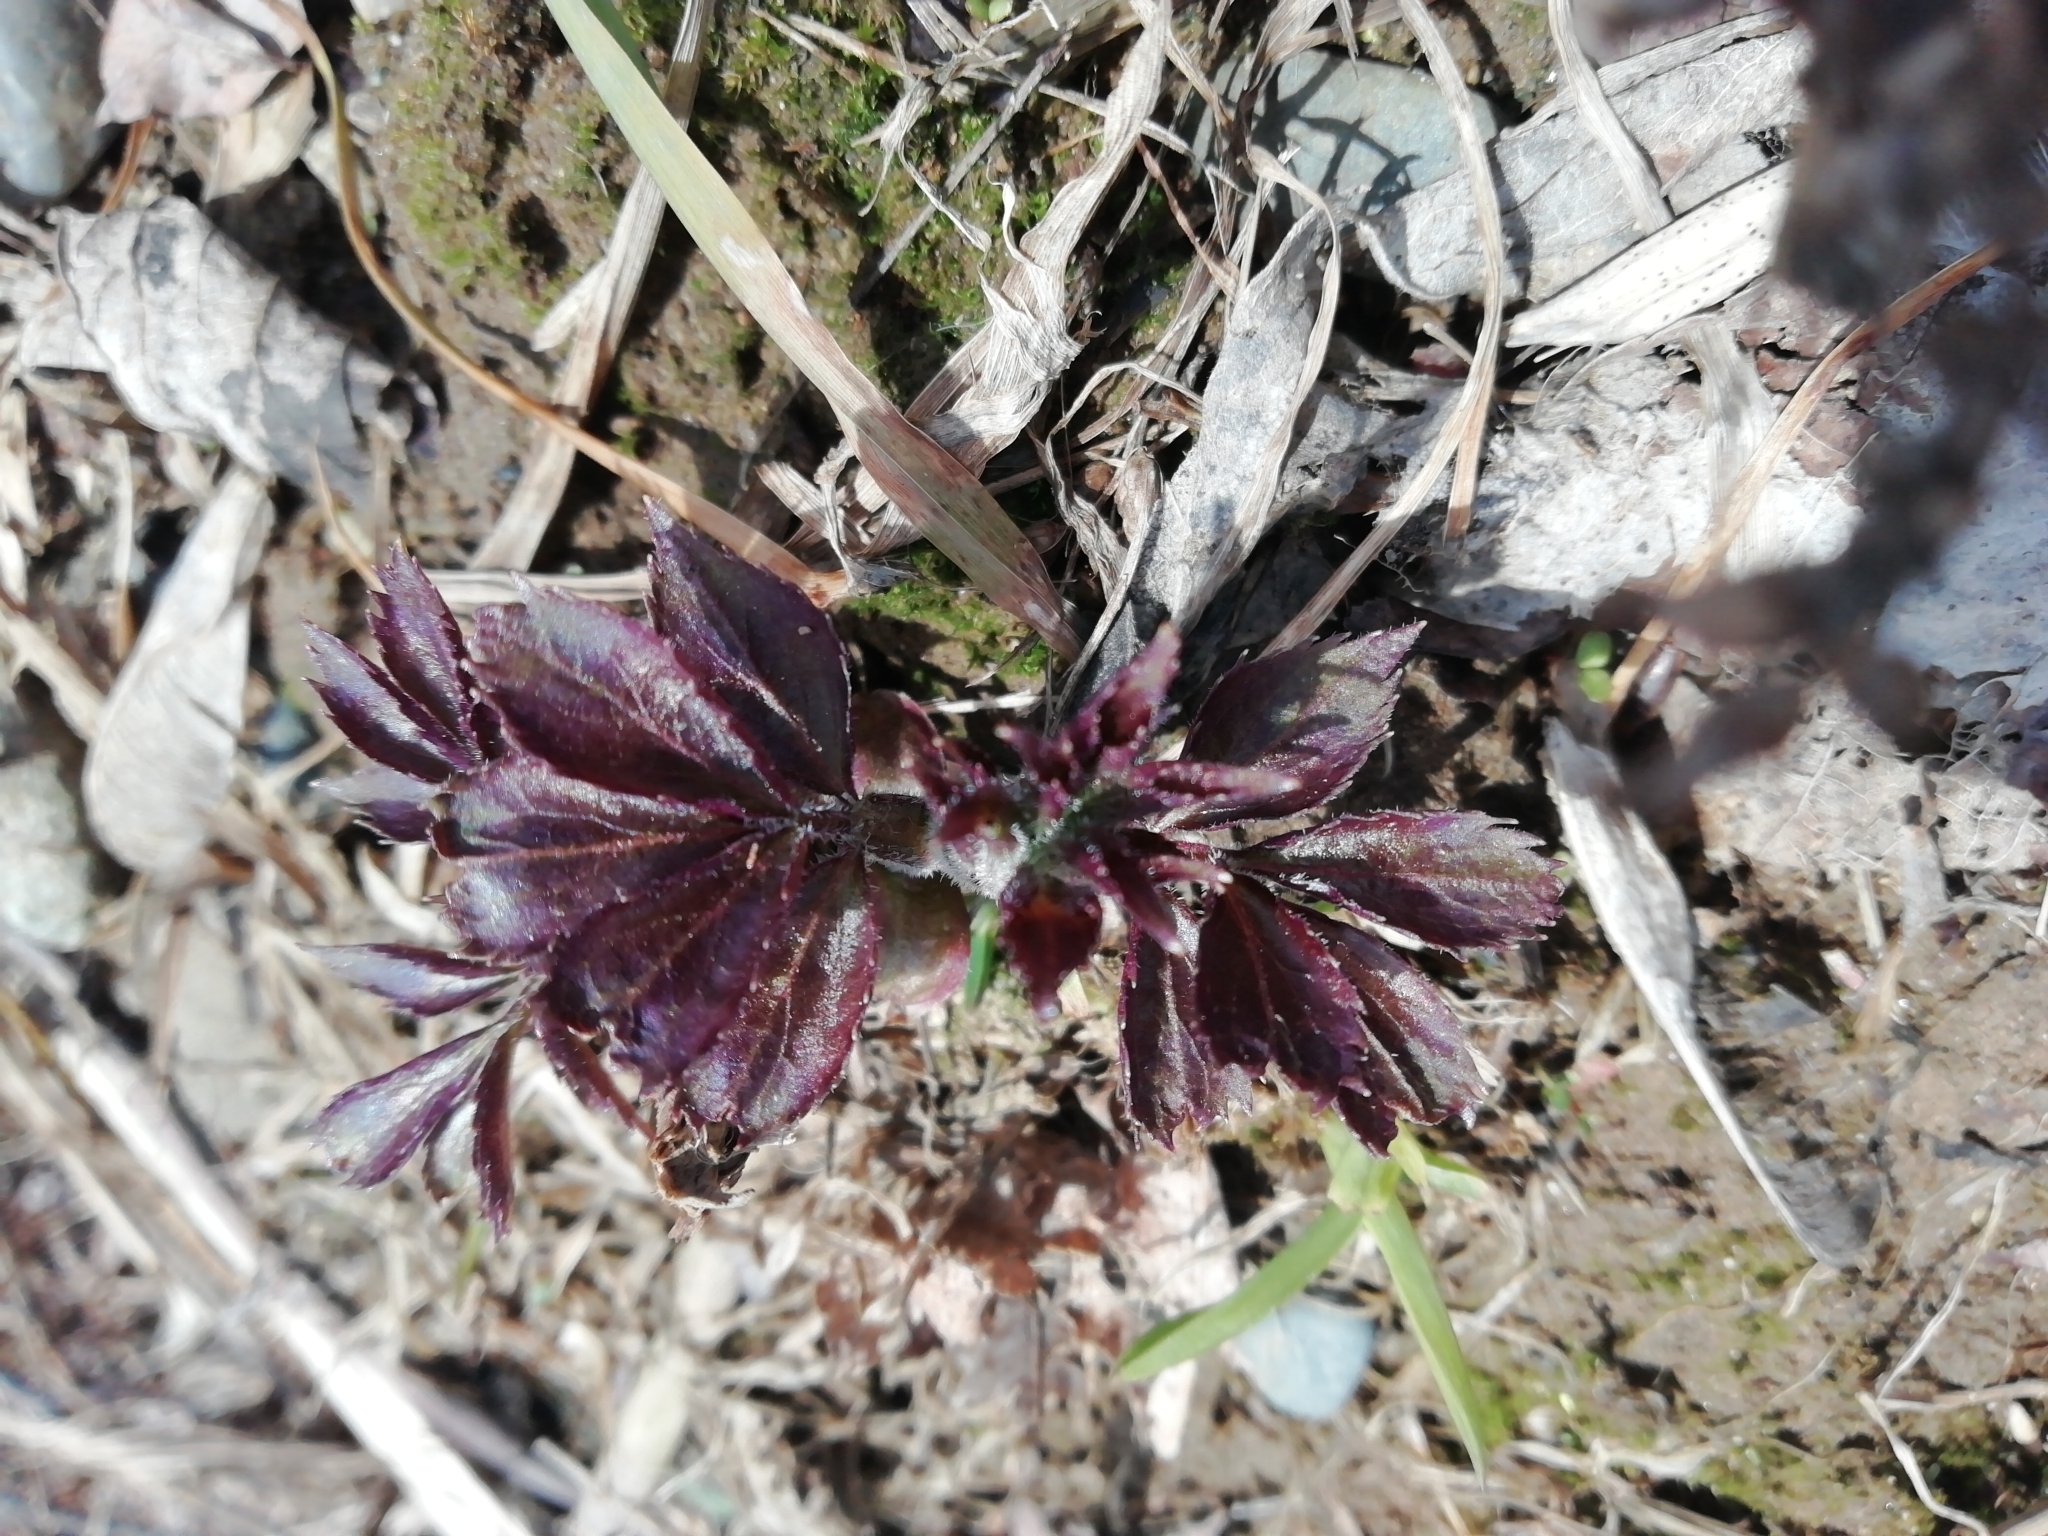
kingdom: Plantae
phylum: Tracheophyta
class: Magnoliopsida
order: Dipsacales
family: Viburnaceae
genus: Sambucus
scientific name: Sambucus sibirica
